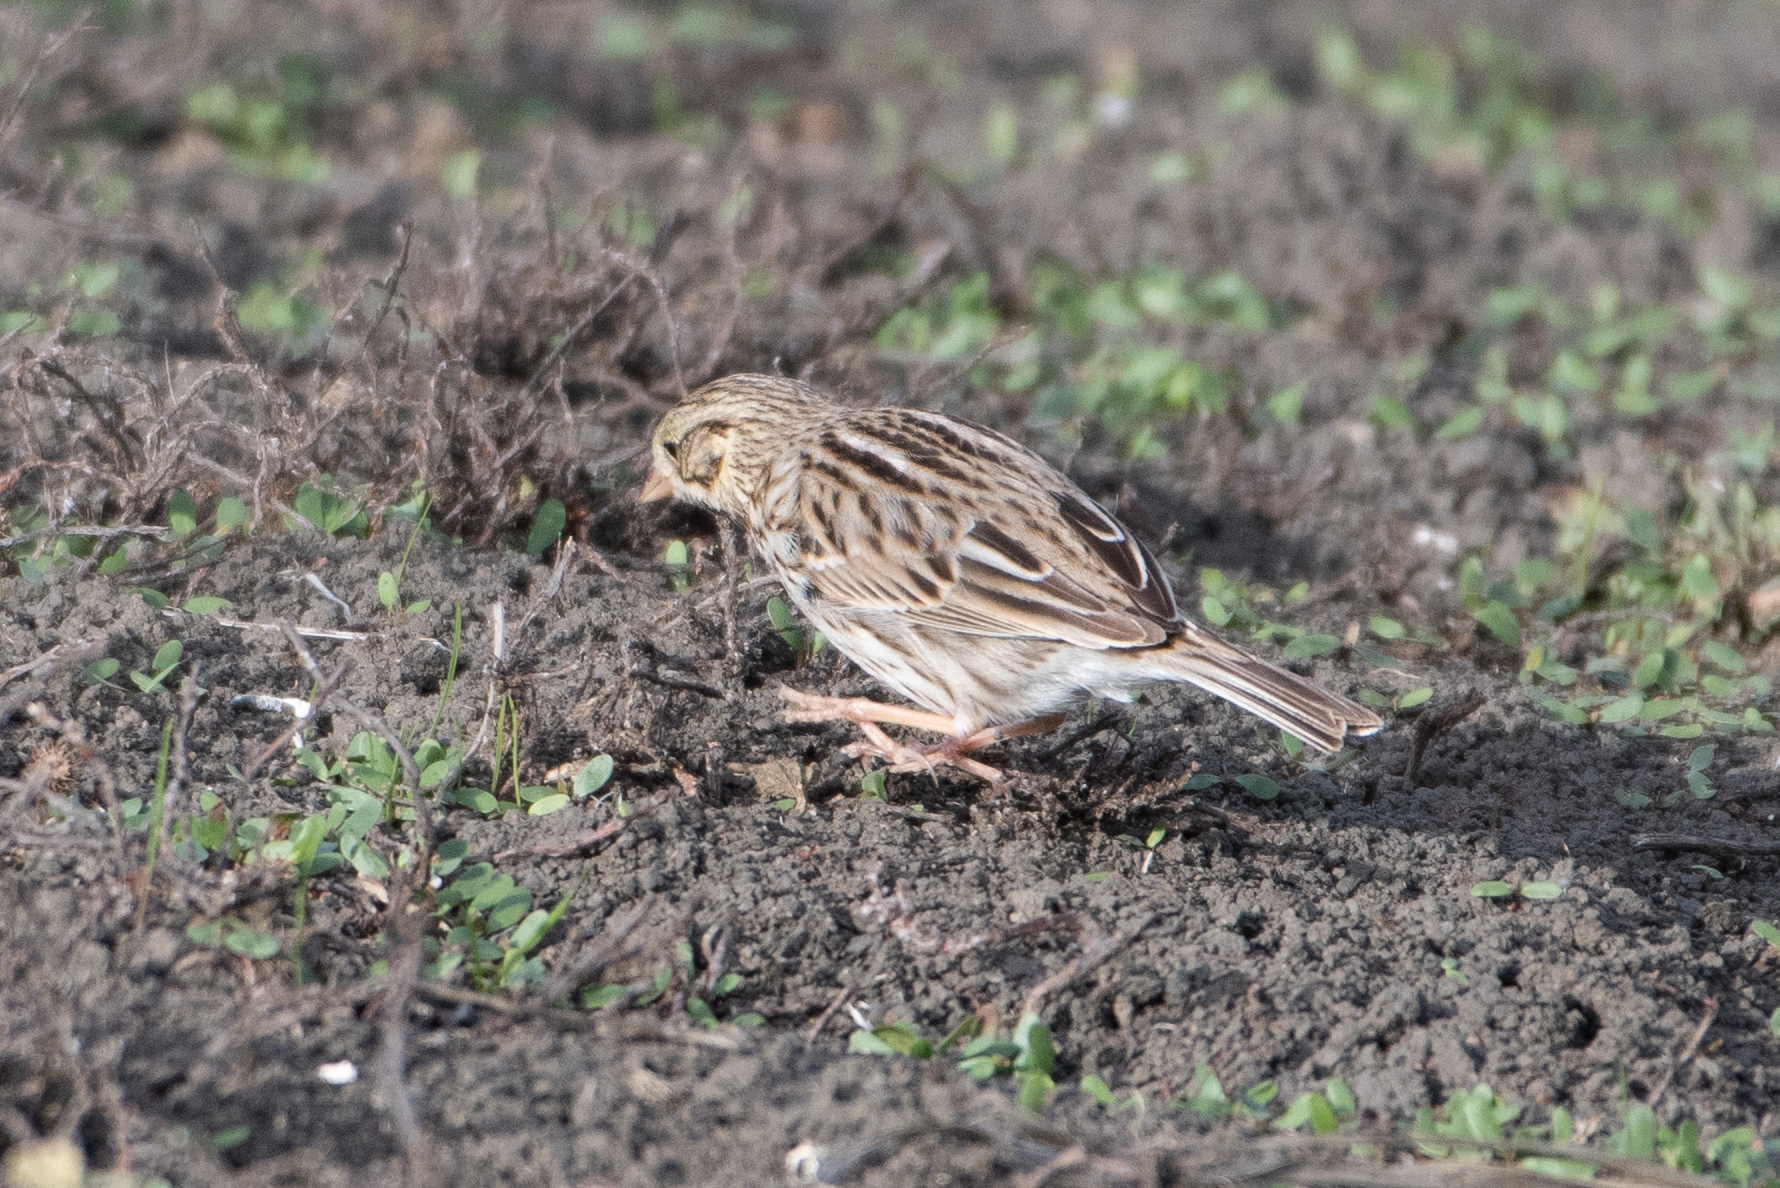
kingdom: Animalia
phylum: Chordata
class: Aves
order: Passeriformes
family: Passerellidae
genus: Passerculus
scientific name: Passerculus sandwichensis
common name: Savannah sparrow
